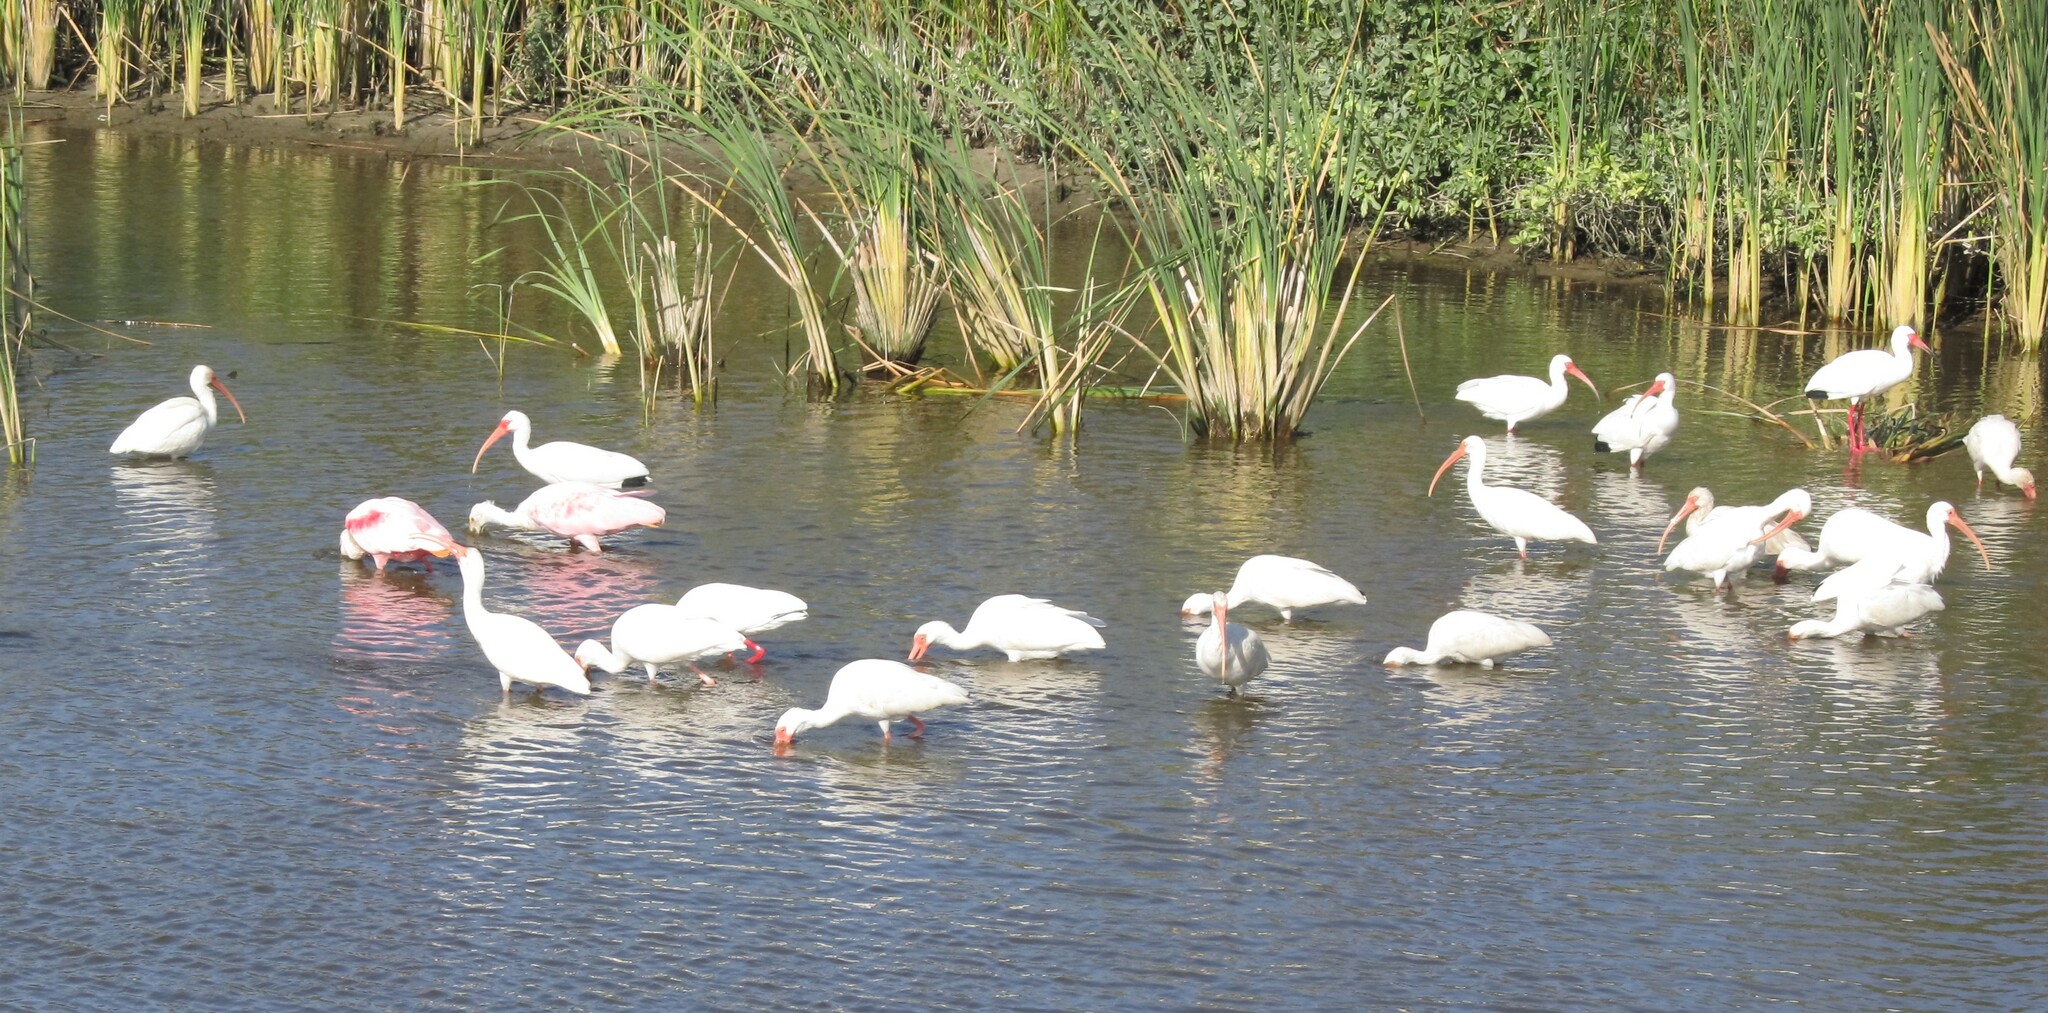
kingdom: Animalia
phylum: Chordata
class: Aves
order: Pelecaniformes
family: Threskiornithidae
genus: Eudocimus
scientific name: Eudocimus albus
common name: White ibis
